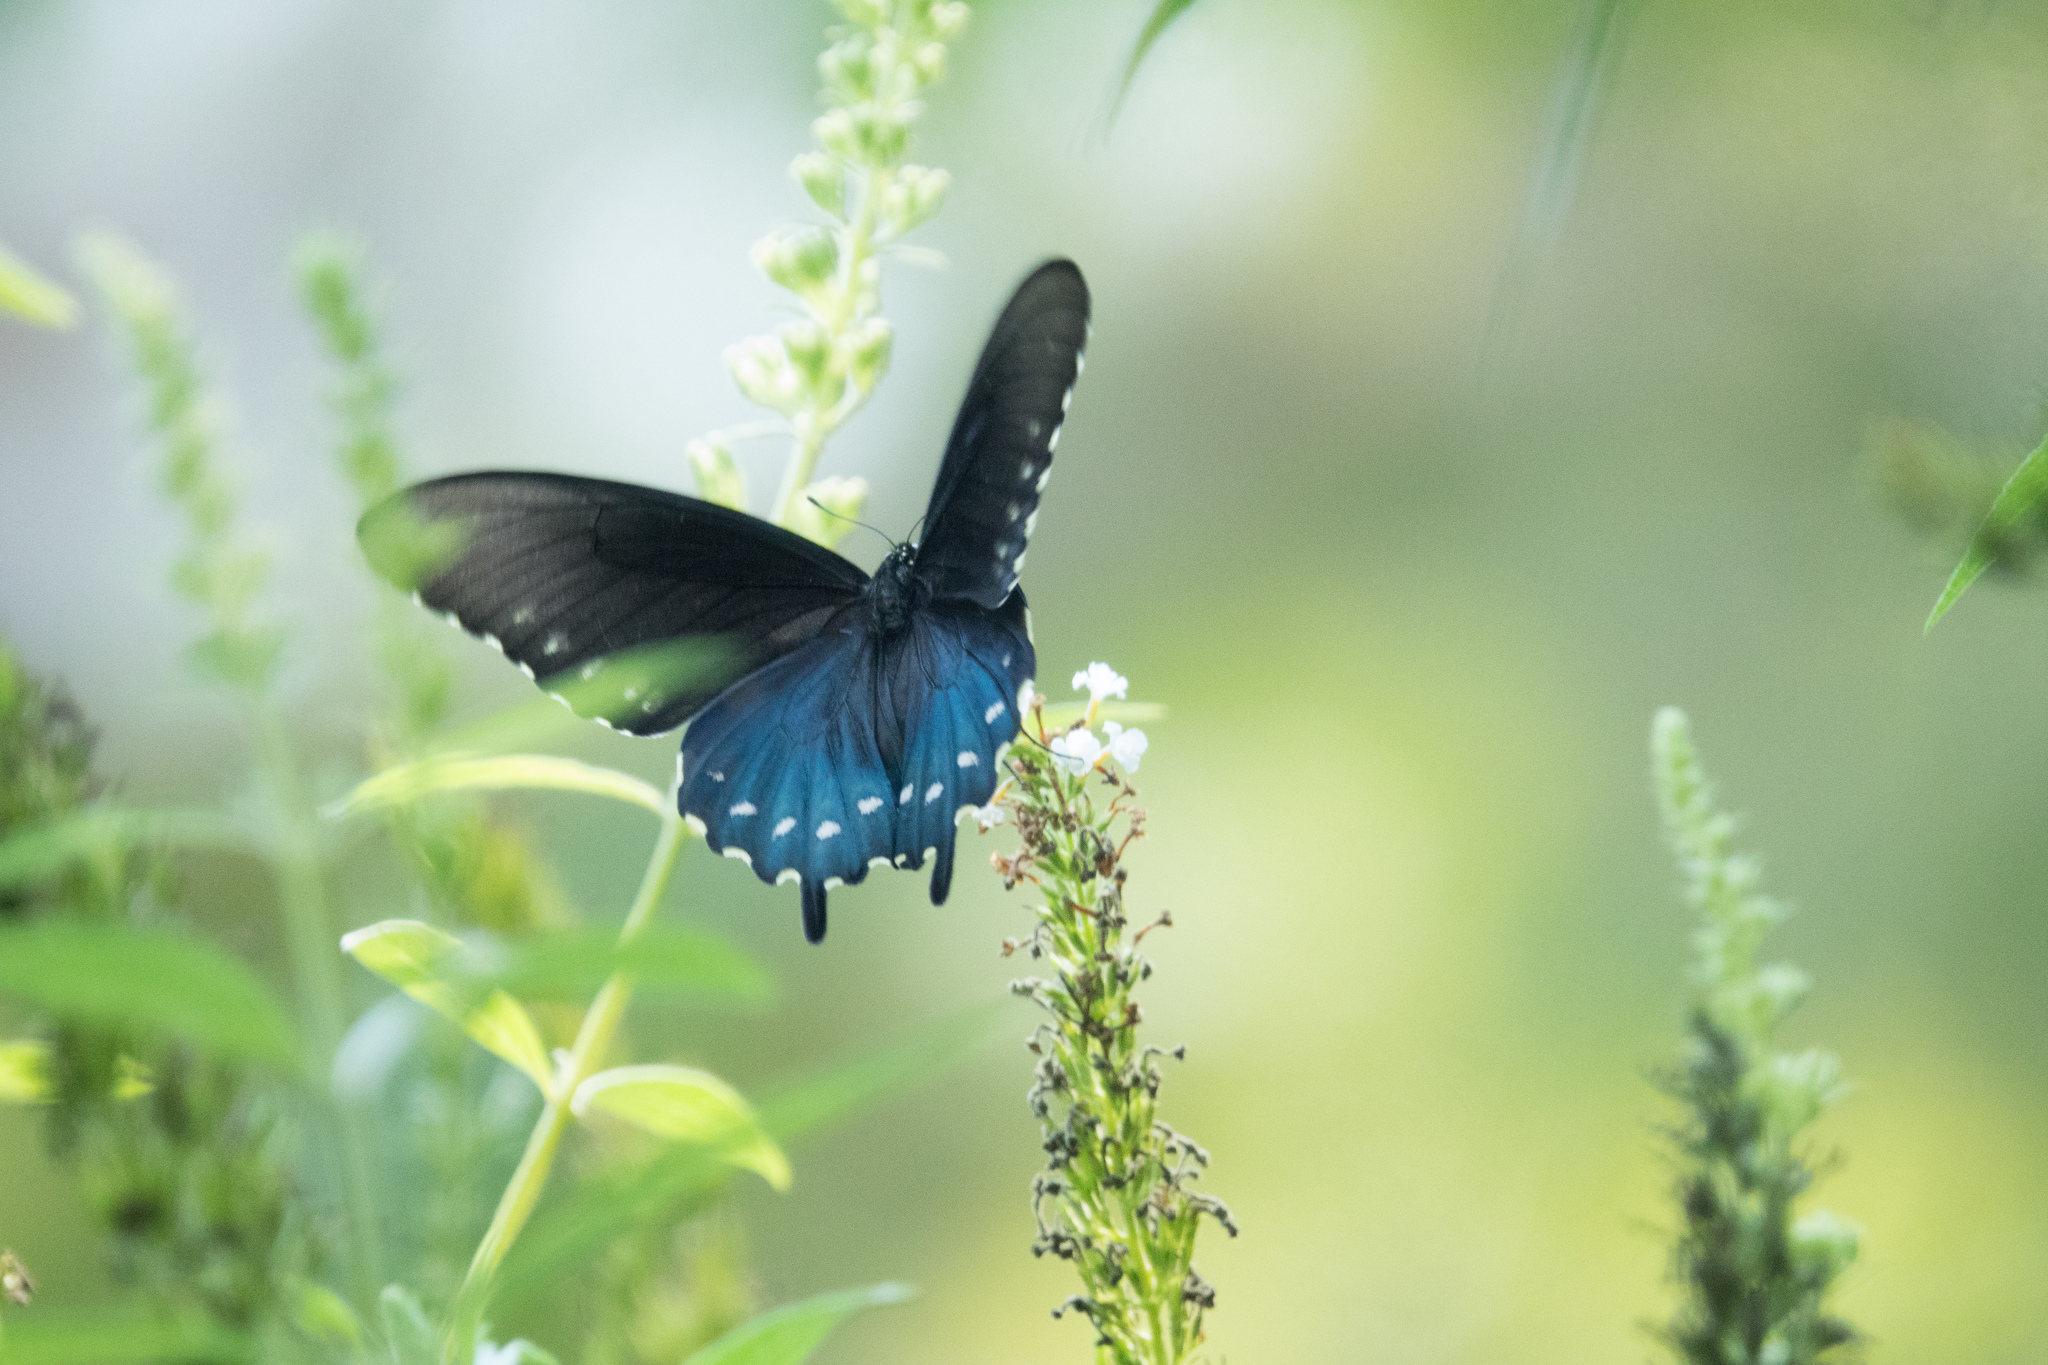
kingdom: Animalia
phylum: Arthropoda
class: Insecta
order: Lepidoptera
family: Papilionidae
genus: Battus
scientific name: Battus philenor
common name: Pipevine swallowtail
